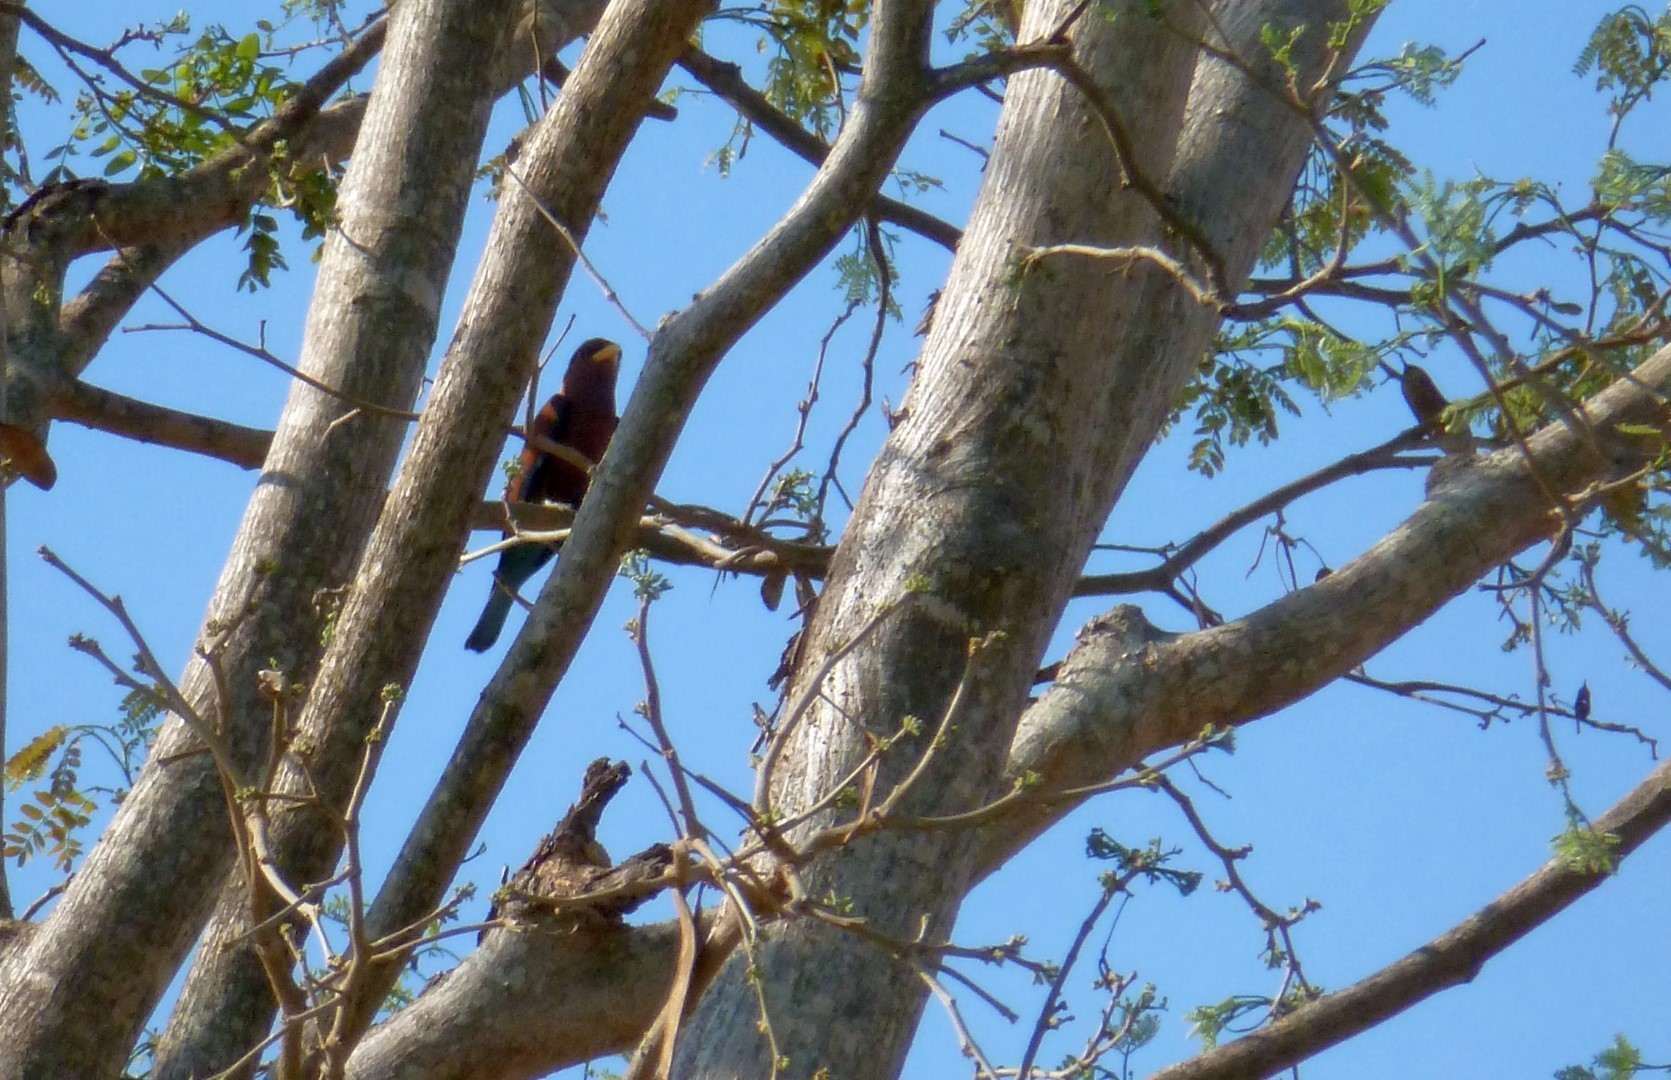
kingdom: Animalia
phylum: Chordata
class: Aves
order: Coraciiformes
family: Coraciidae
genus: Eurystomus
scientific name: Eurystomus glaucurus
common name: Broad-billed roller
